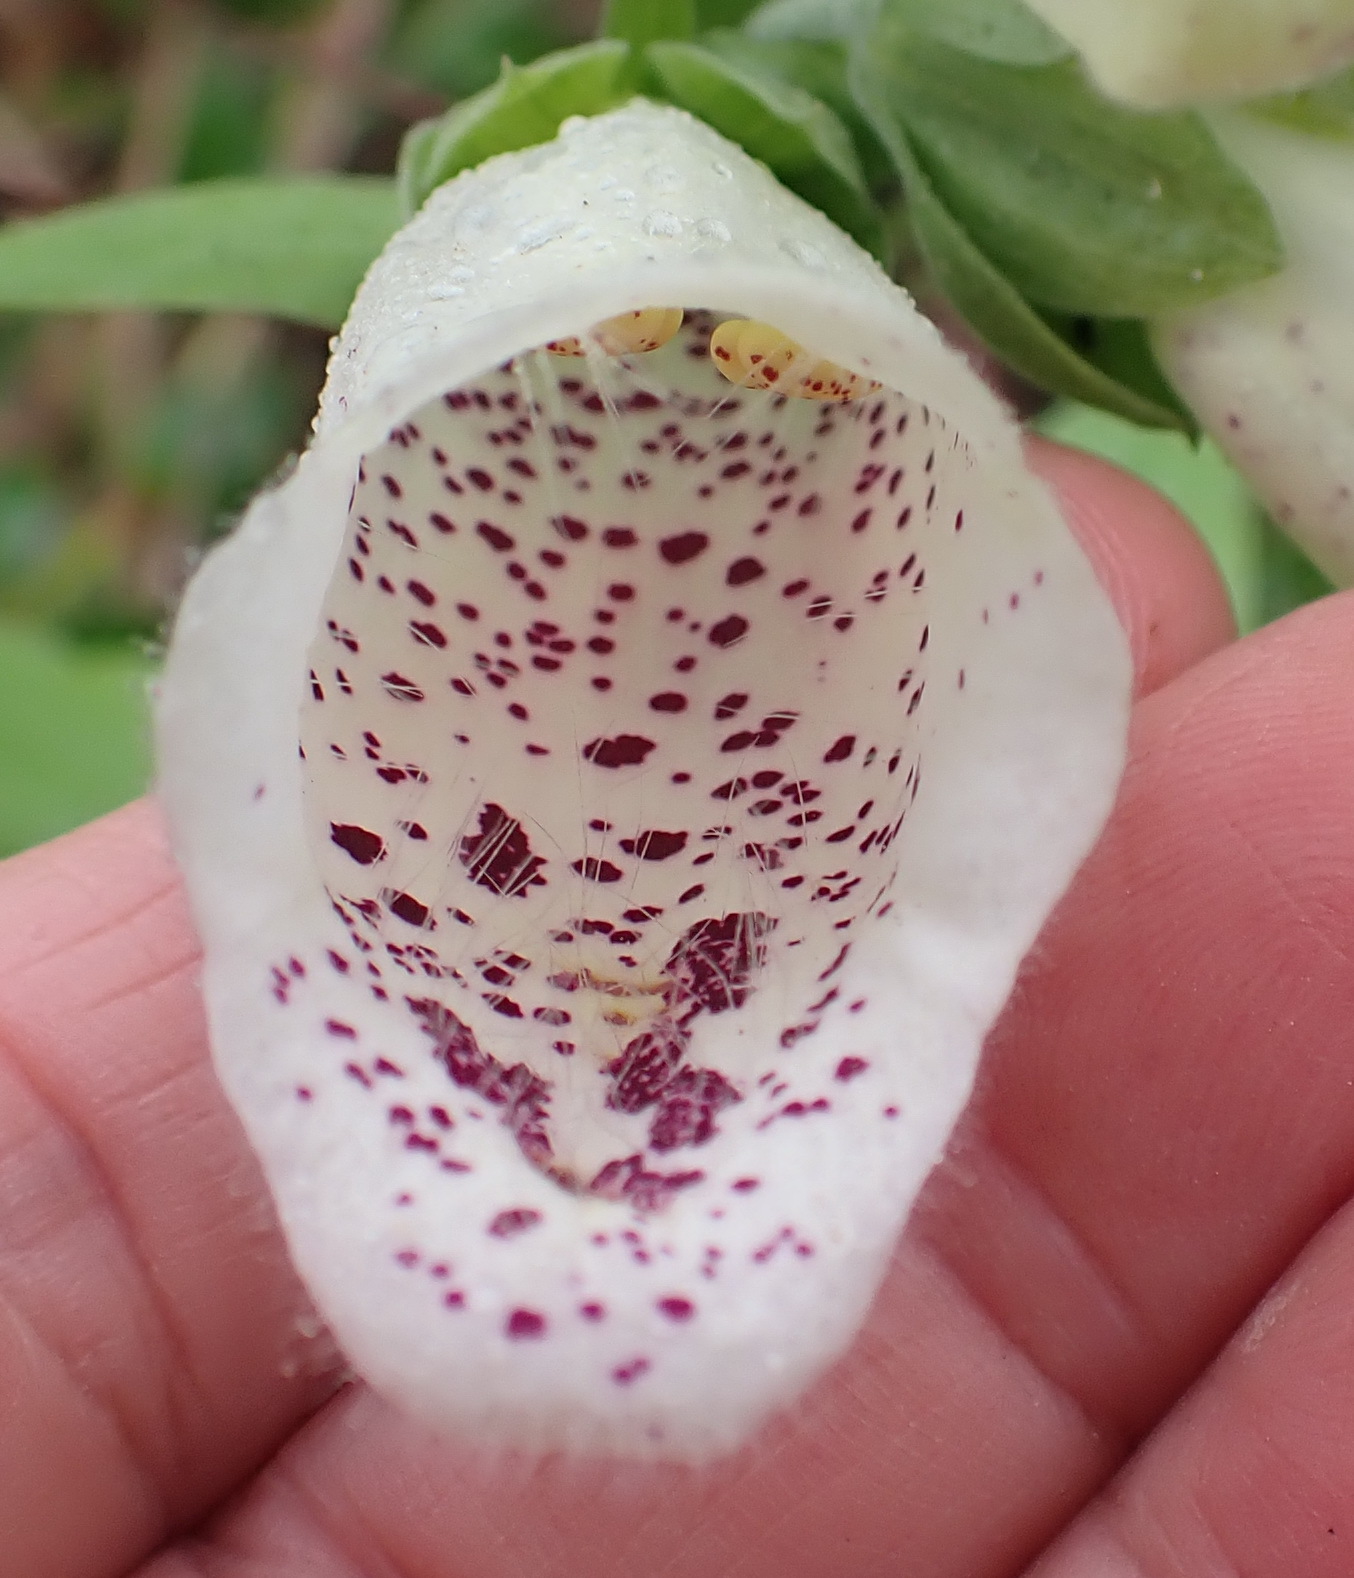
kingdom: Plantae
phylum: Tracheophyta
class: Magnoliopsida
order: Lamiales
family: Plantaginaceae
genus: Digitalis
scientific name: Digitalis purpurea
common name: Foxglove
